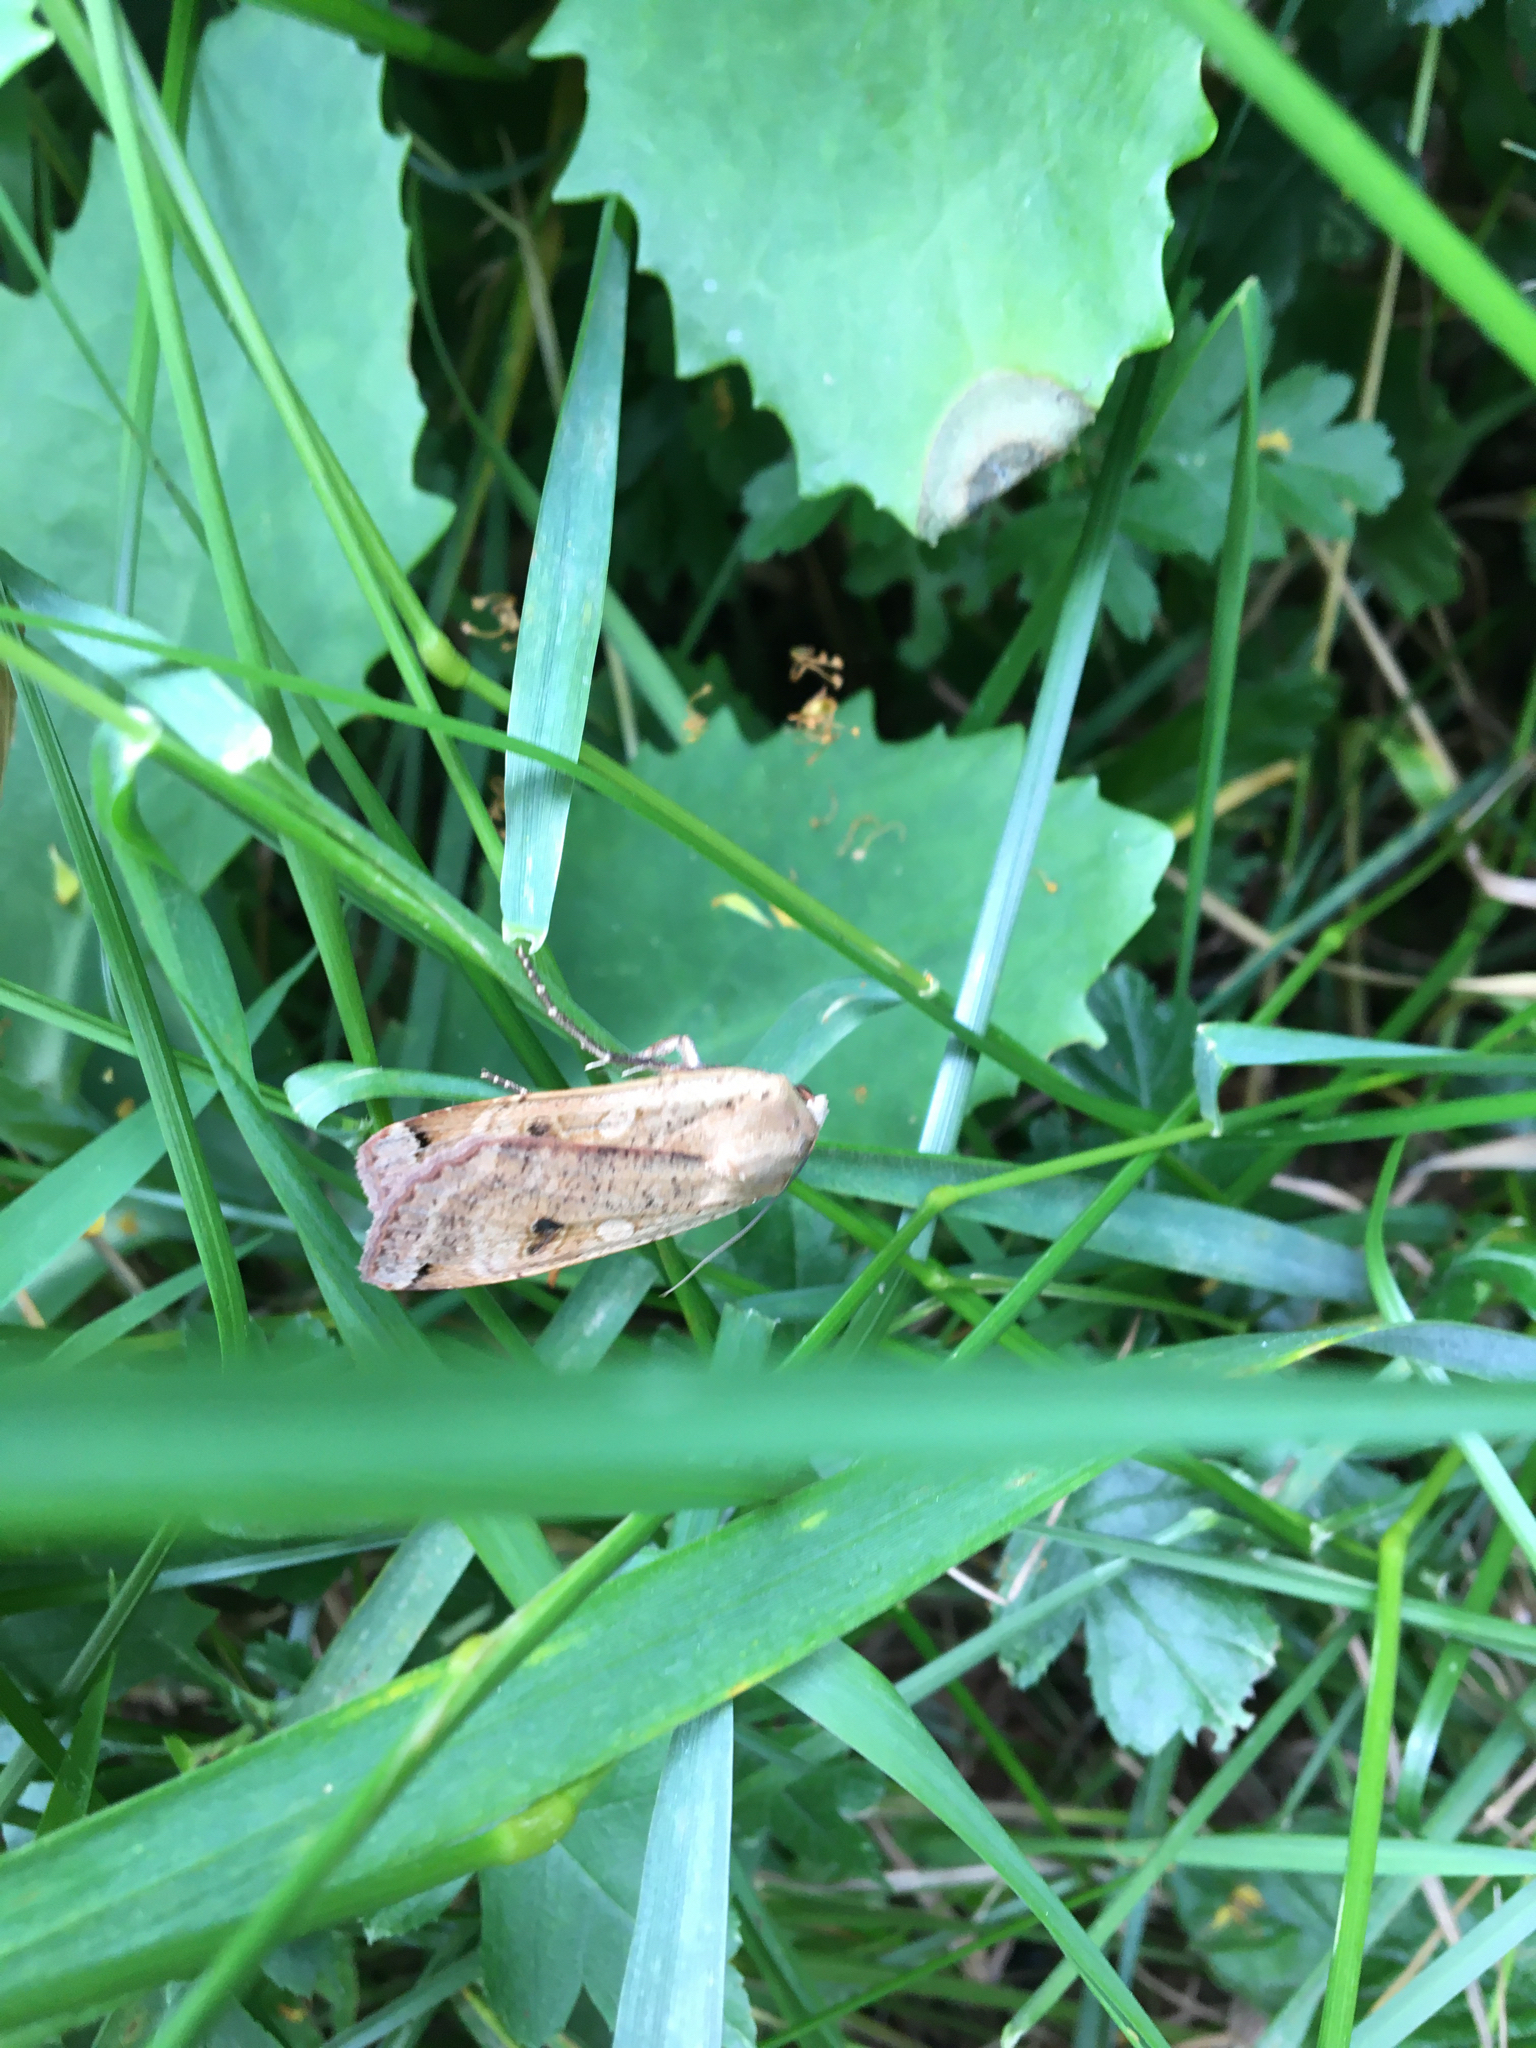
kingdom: Animalia
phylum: Arthropoda
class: Insecta
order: Lepidoptera
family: Noctuidae
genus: Noctua
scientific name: Noctua pronuba
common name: Large yellow underwing
